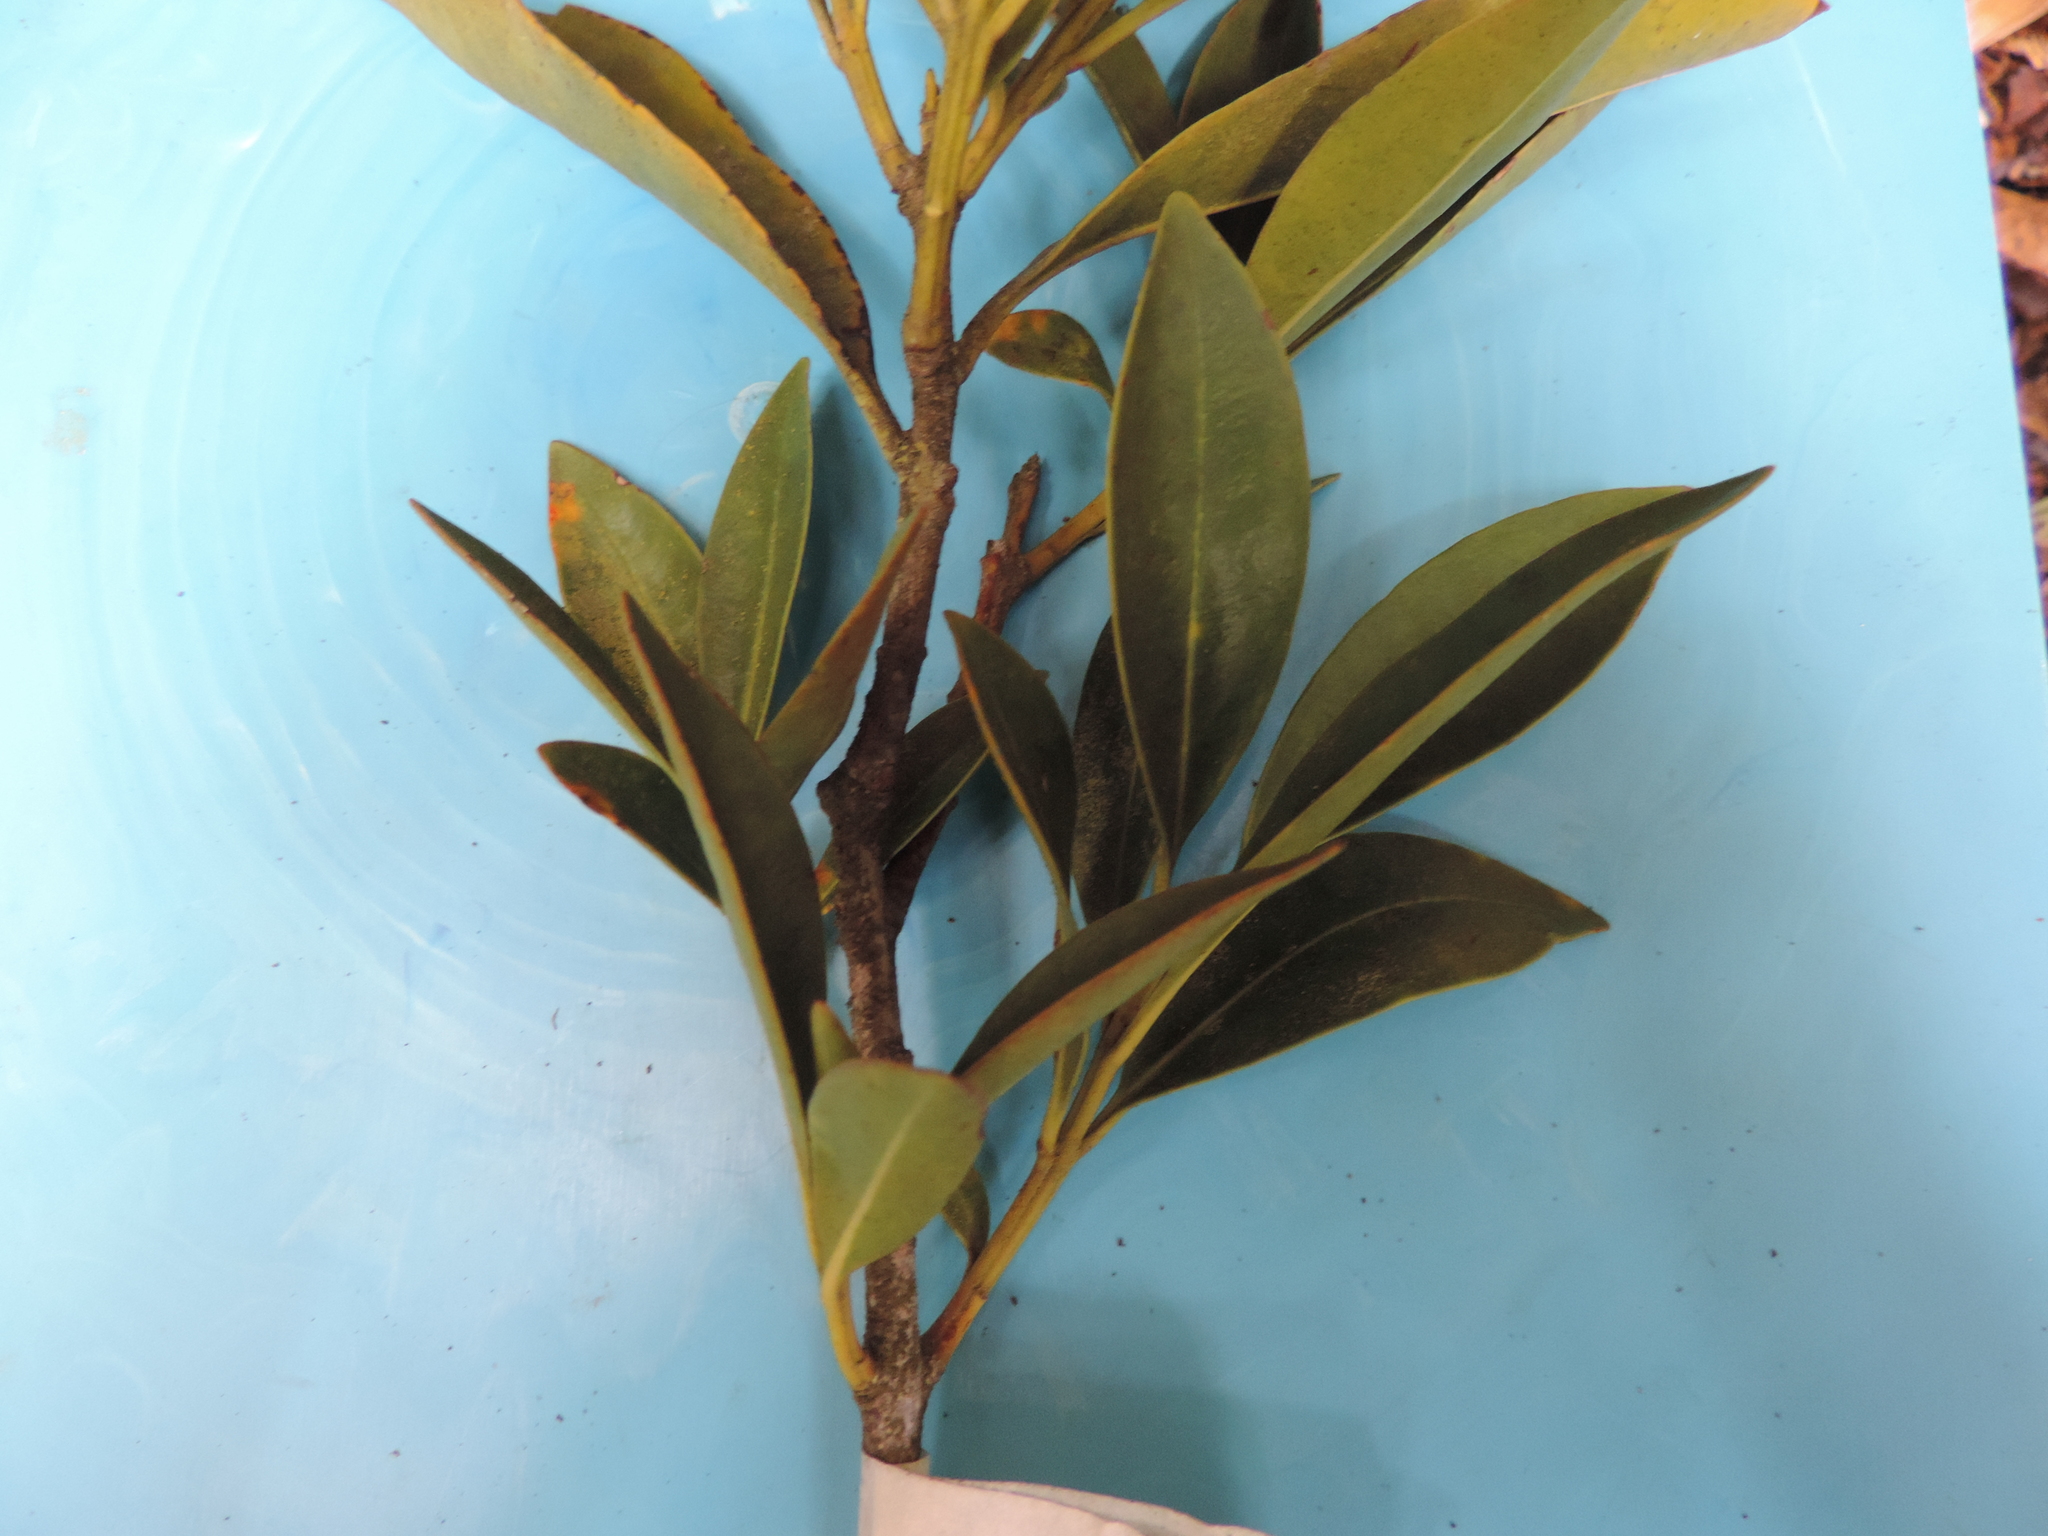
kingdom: Plantae
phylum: Tracheophyta
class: Magnoliopsida
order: Myrtales
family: Myrtaceae
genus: Myrcianthes
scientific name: Myrcianthes orthostemon
